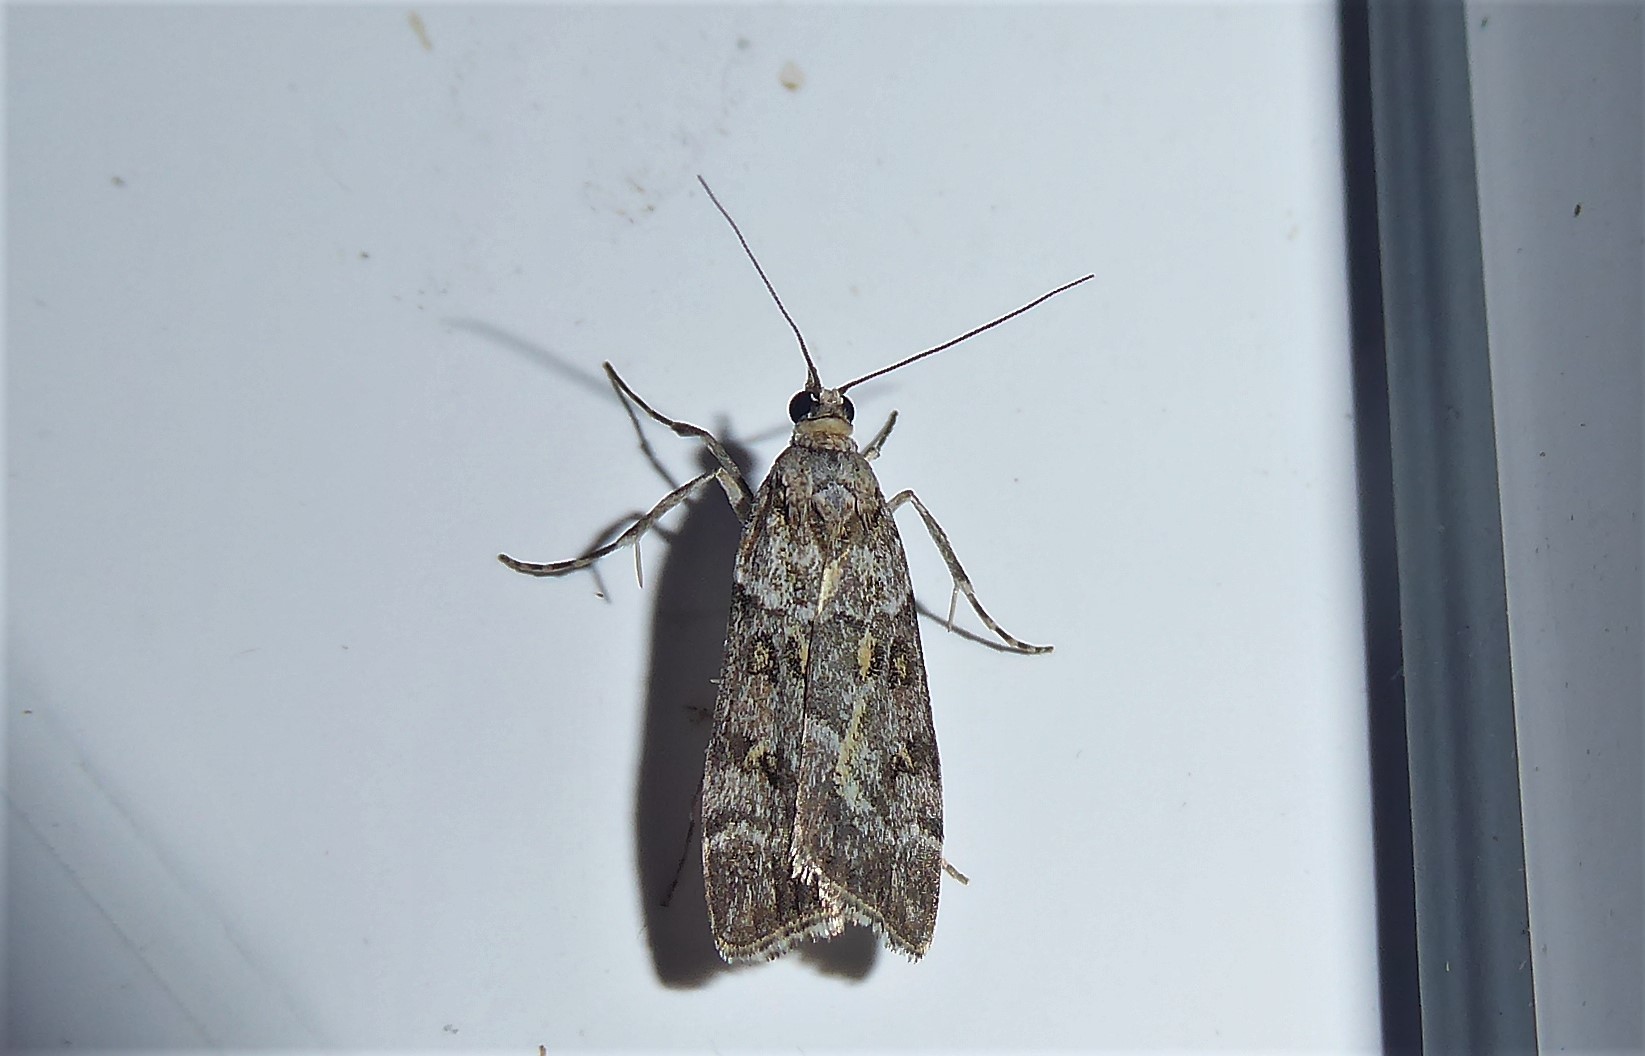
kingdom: Animalia
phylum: Arthropoda
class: Insecta
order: Lepidoptera
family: Crambidae
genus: Eudonia
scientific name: Eudonia diphtheralis
